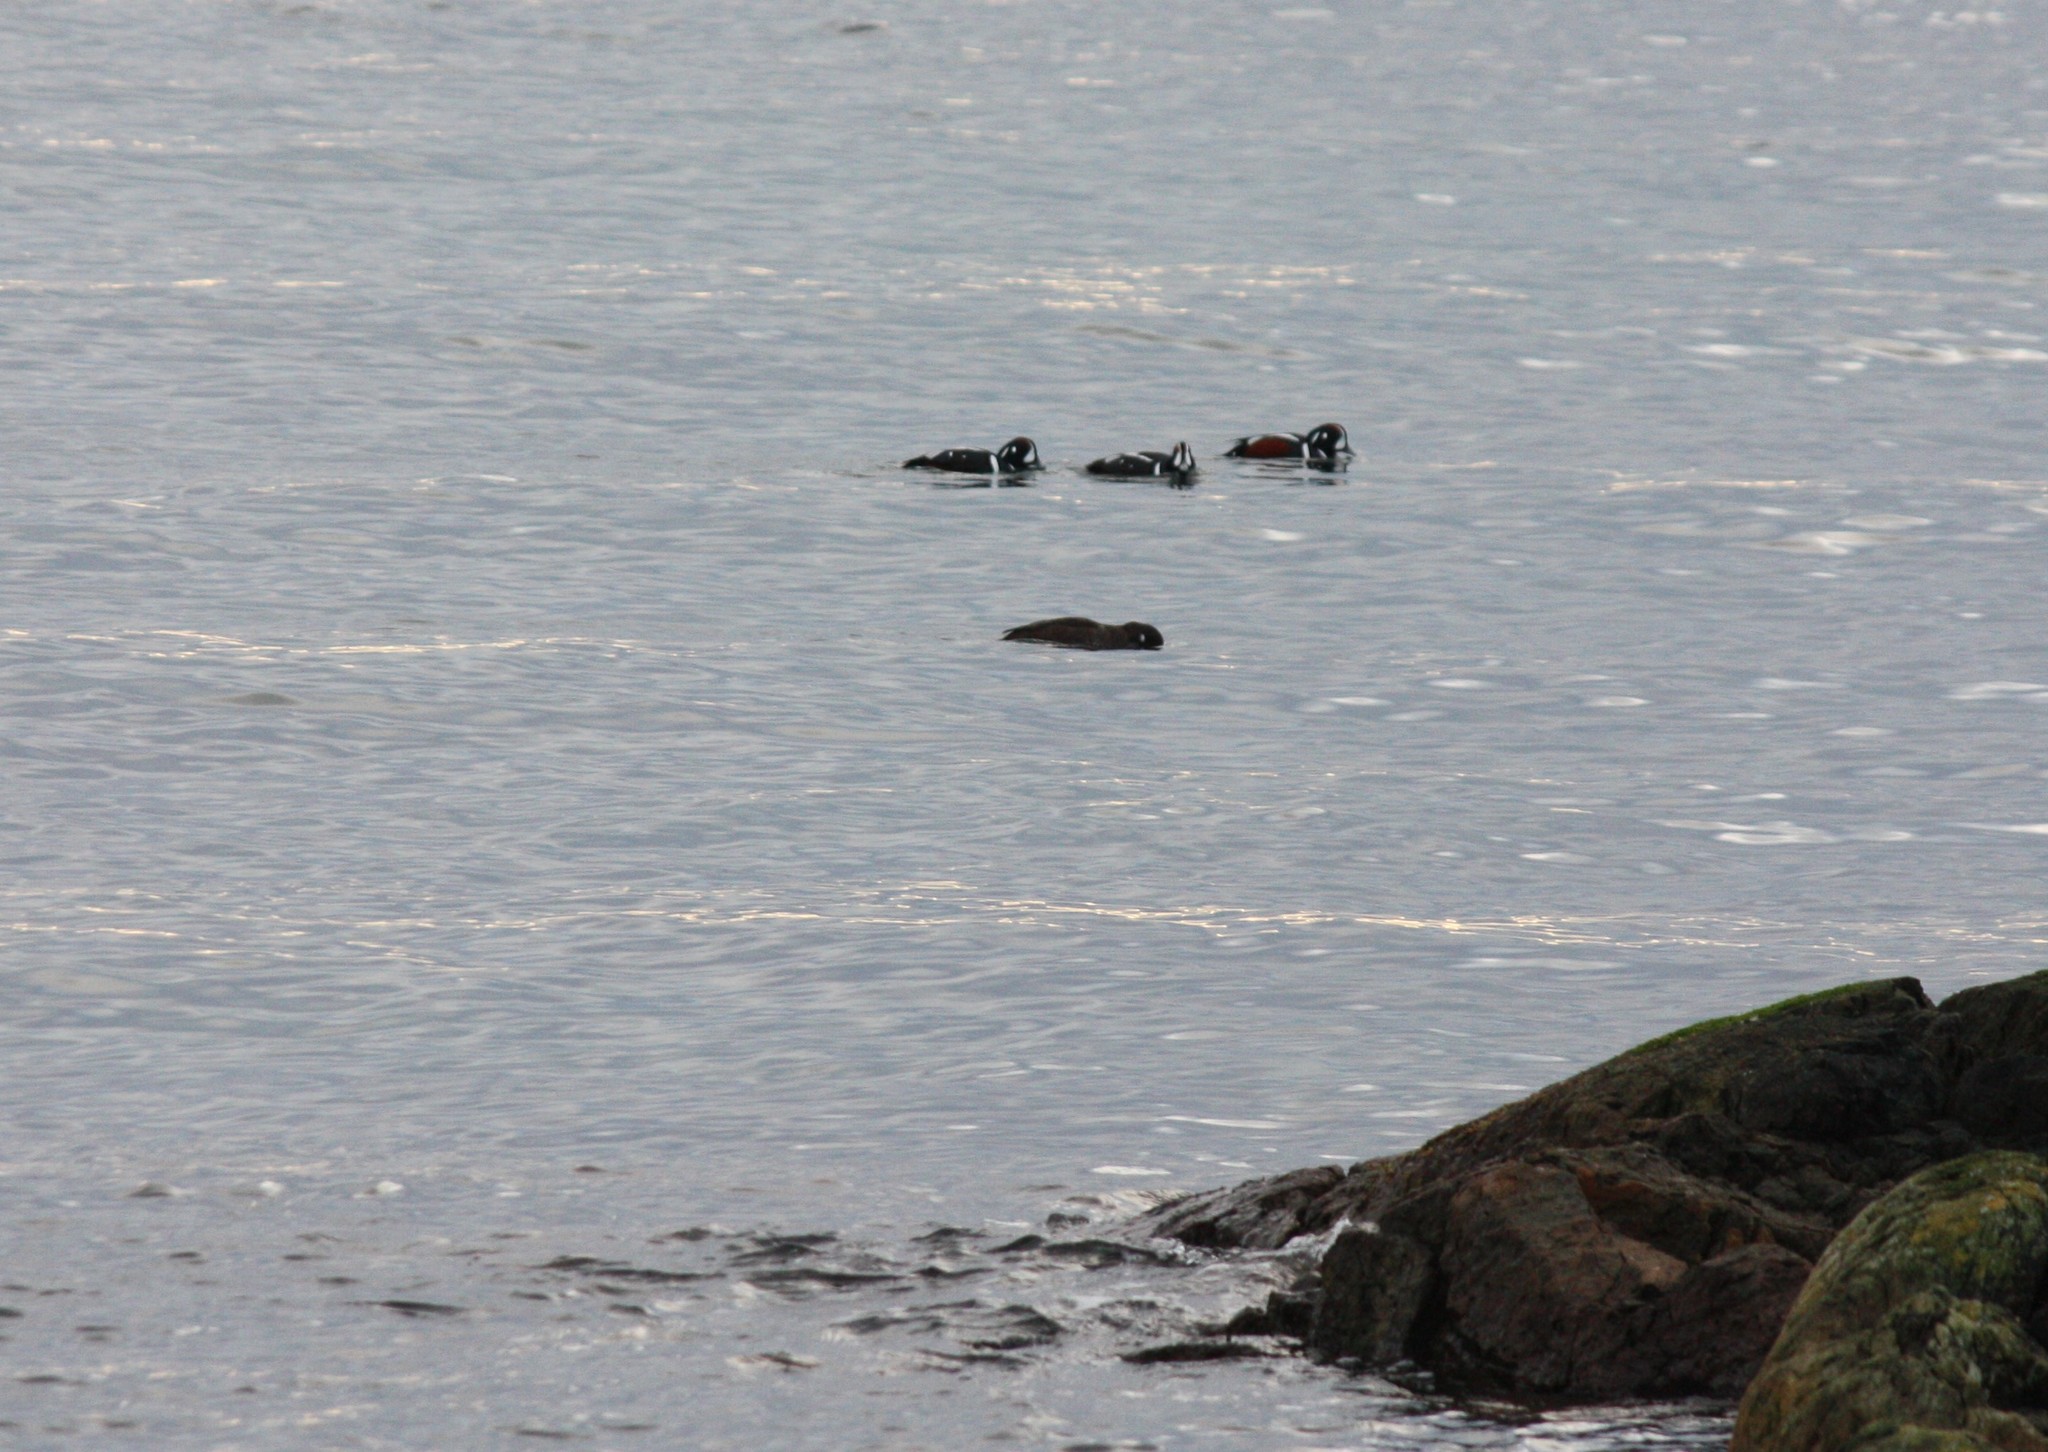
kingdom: Animalia
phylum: Chordata
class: Aves
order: Anseriformes
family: Anatidae
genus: Histrionicus
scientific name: Histrionicus histrionicus
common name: Harlequin duck
